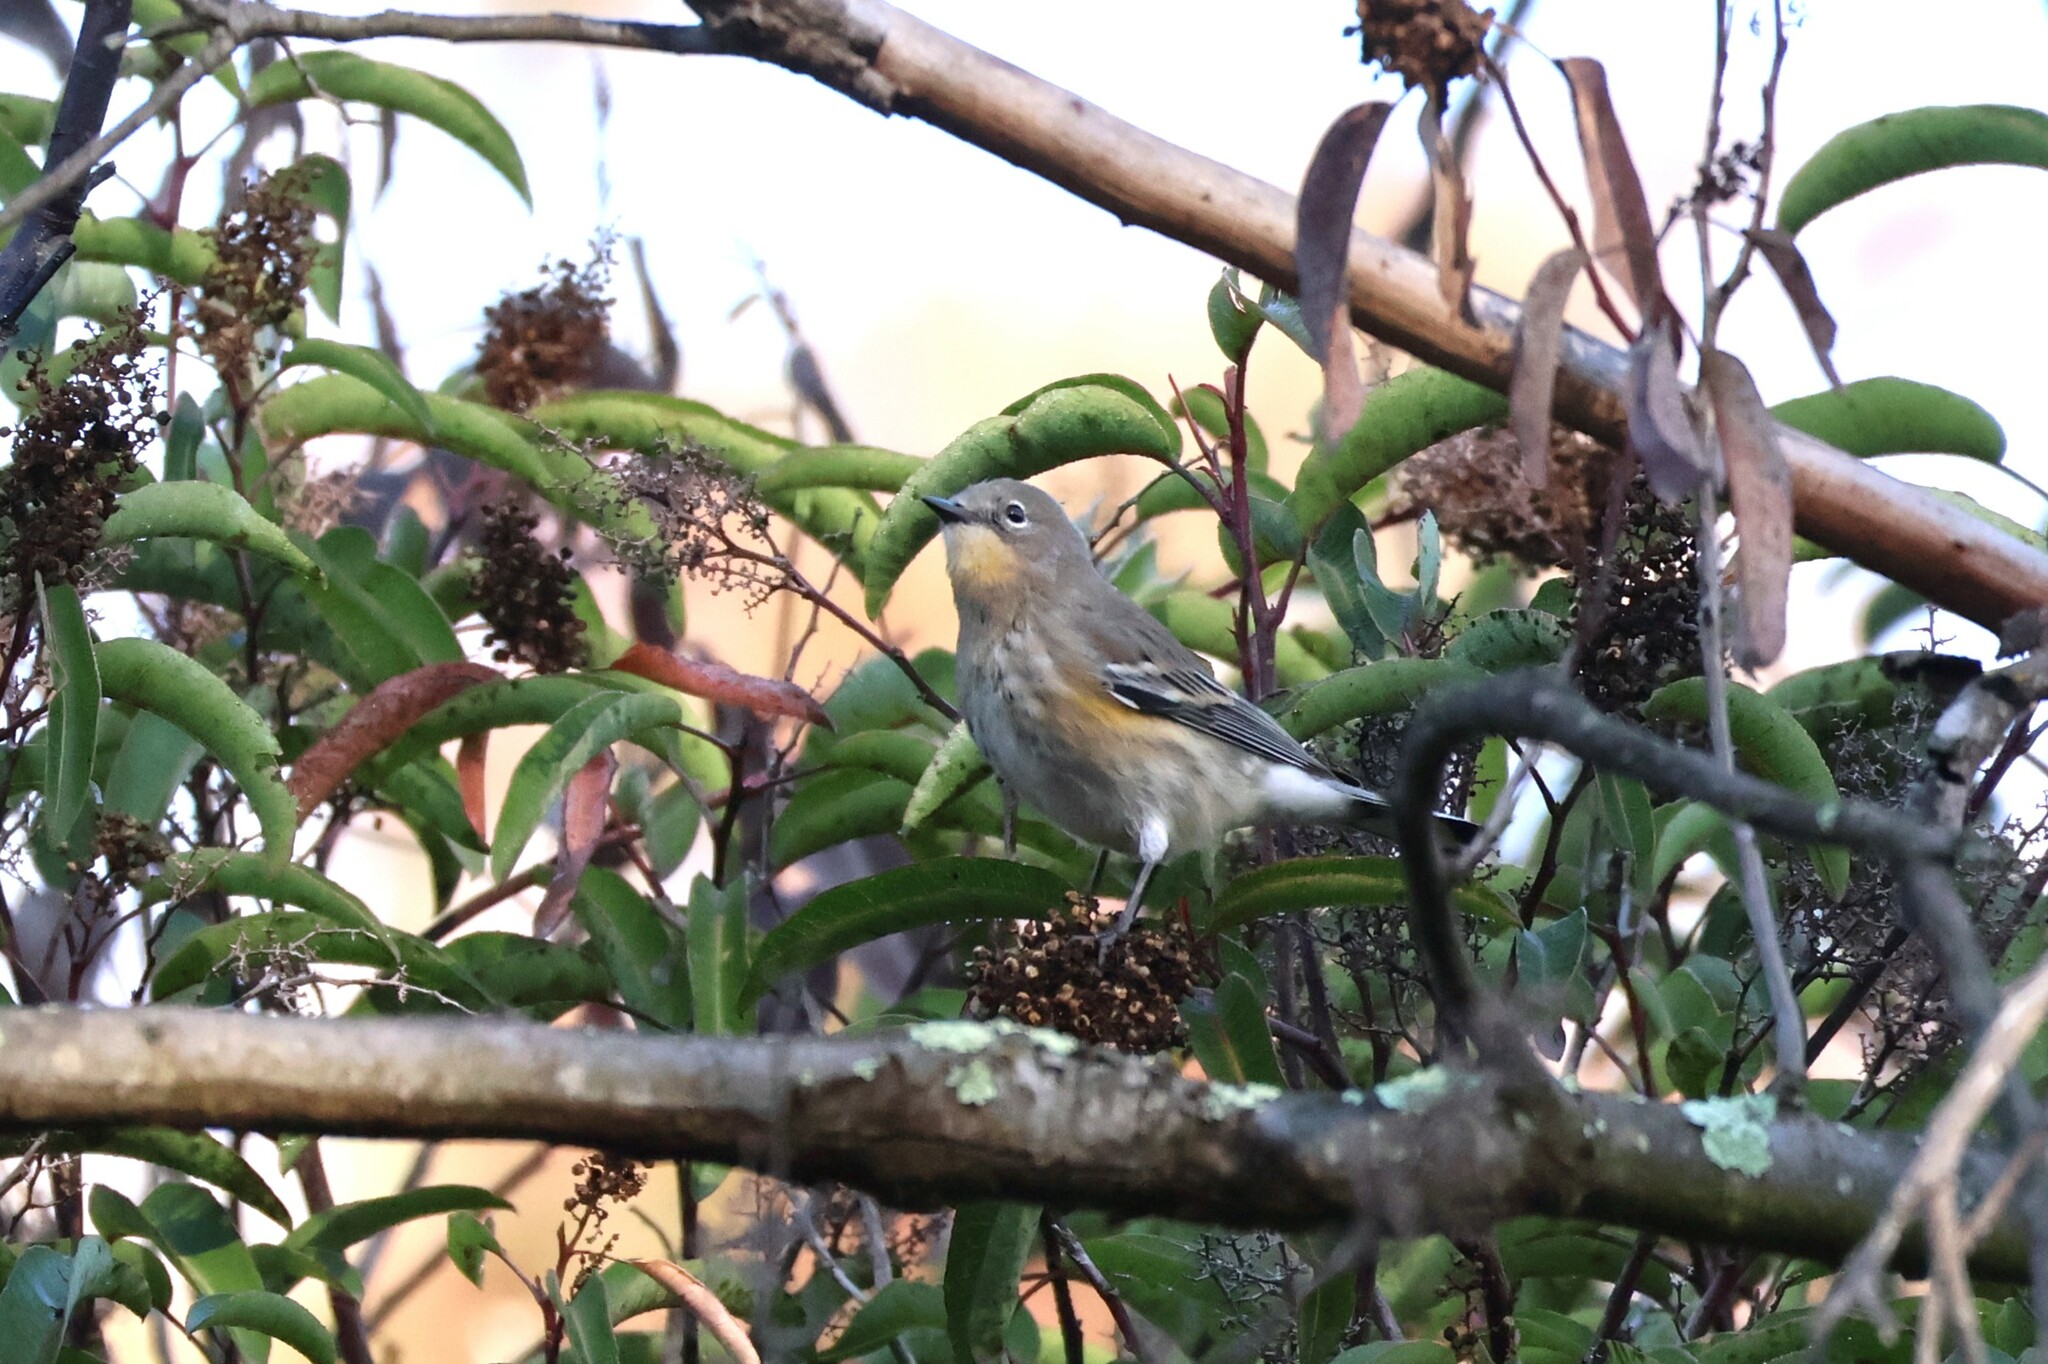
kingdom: Animalia
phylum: Chordata
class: Aves
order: Passeriformes
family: Parulidae
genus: Setophaga
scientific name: Setophaga auduboni
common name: Audubon's warbler
